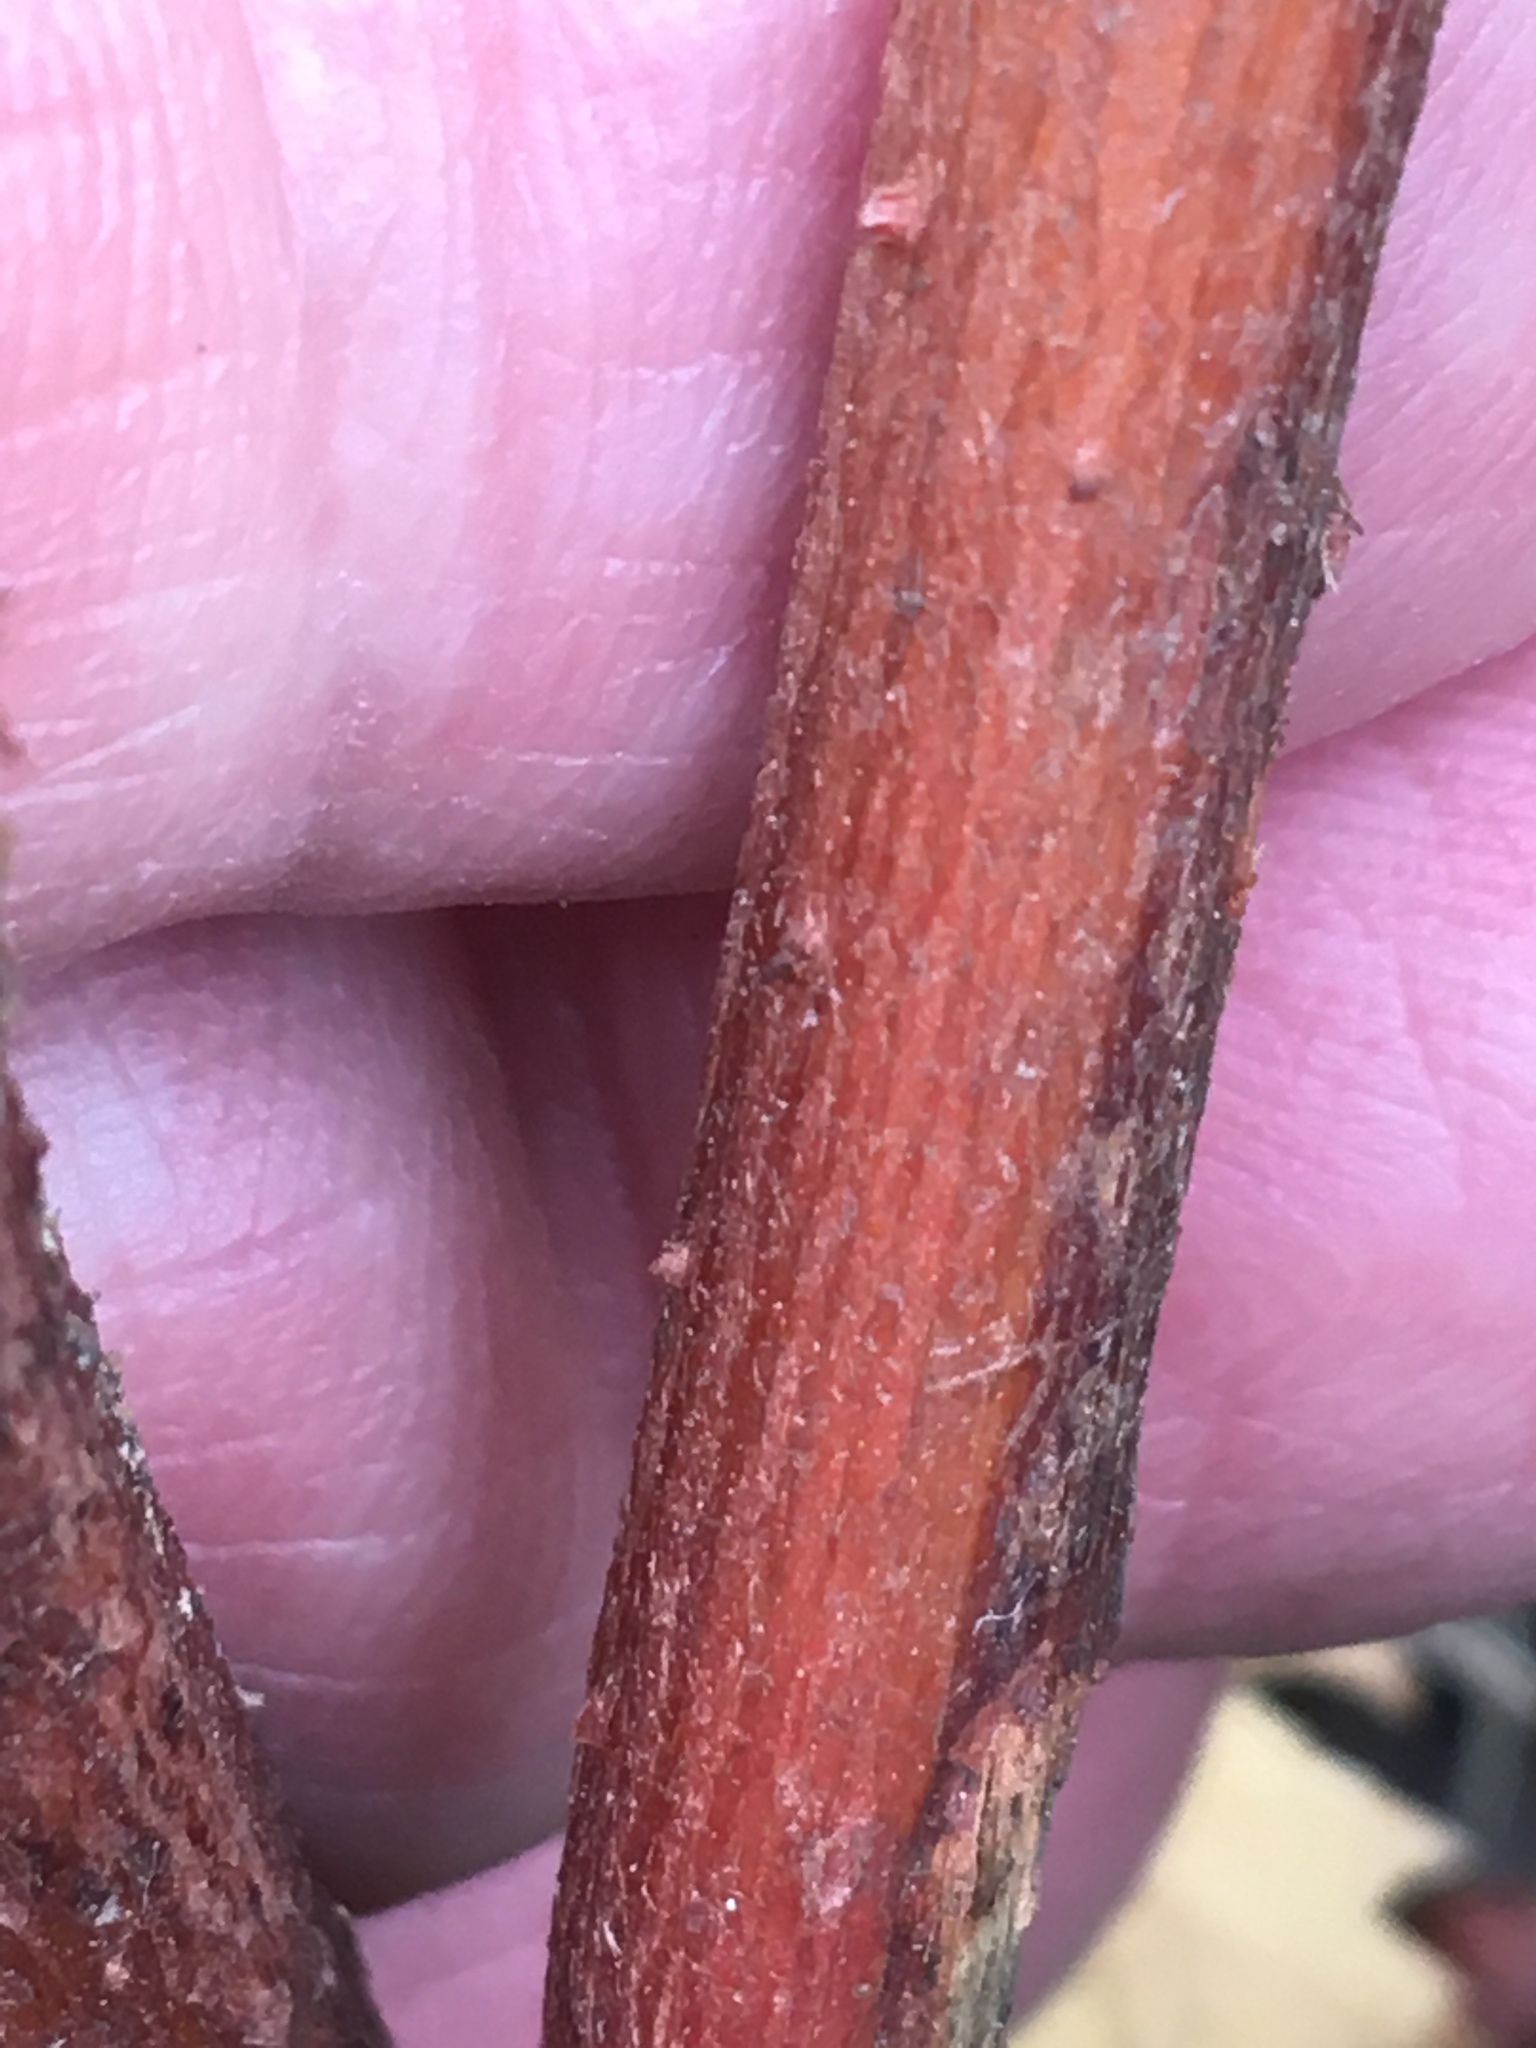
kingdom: Plantae
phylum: Tracheophyta
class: Magnoliopsida
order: Caryophyllales
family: Polygonaceae
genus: Persicaria
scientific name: Persicaria extremiorientalis
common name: Far-eastern smartweed
